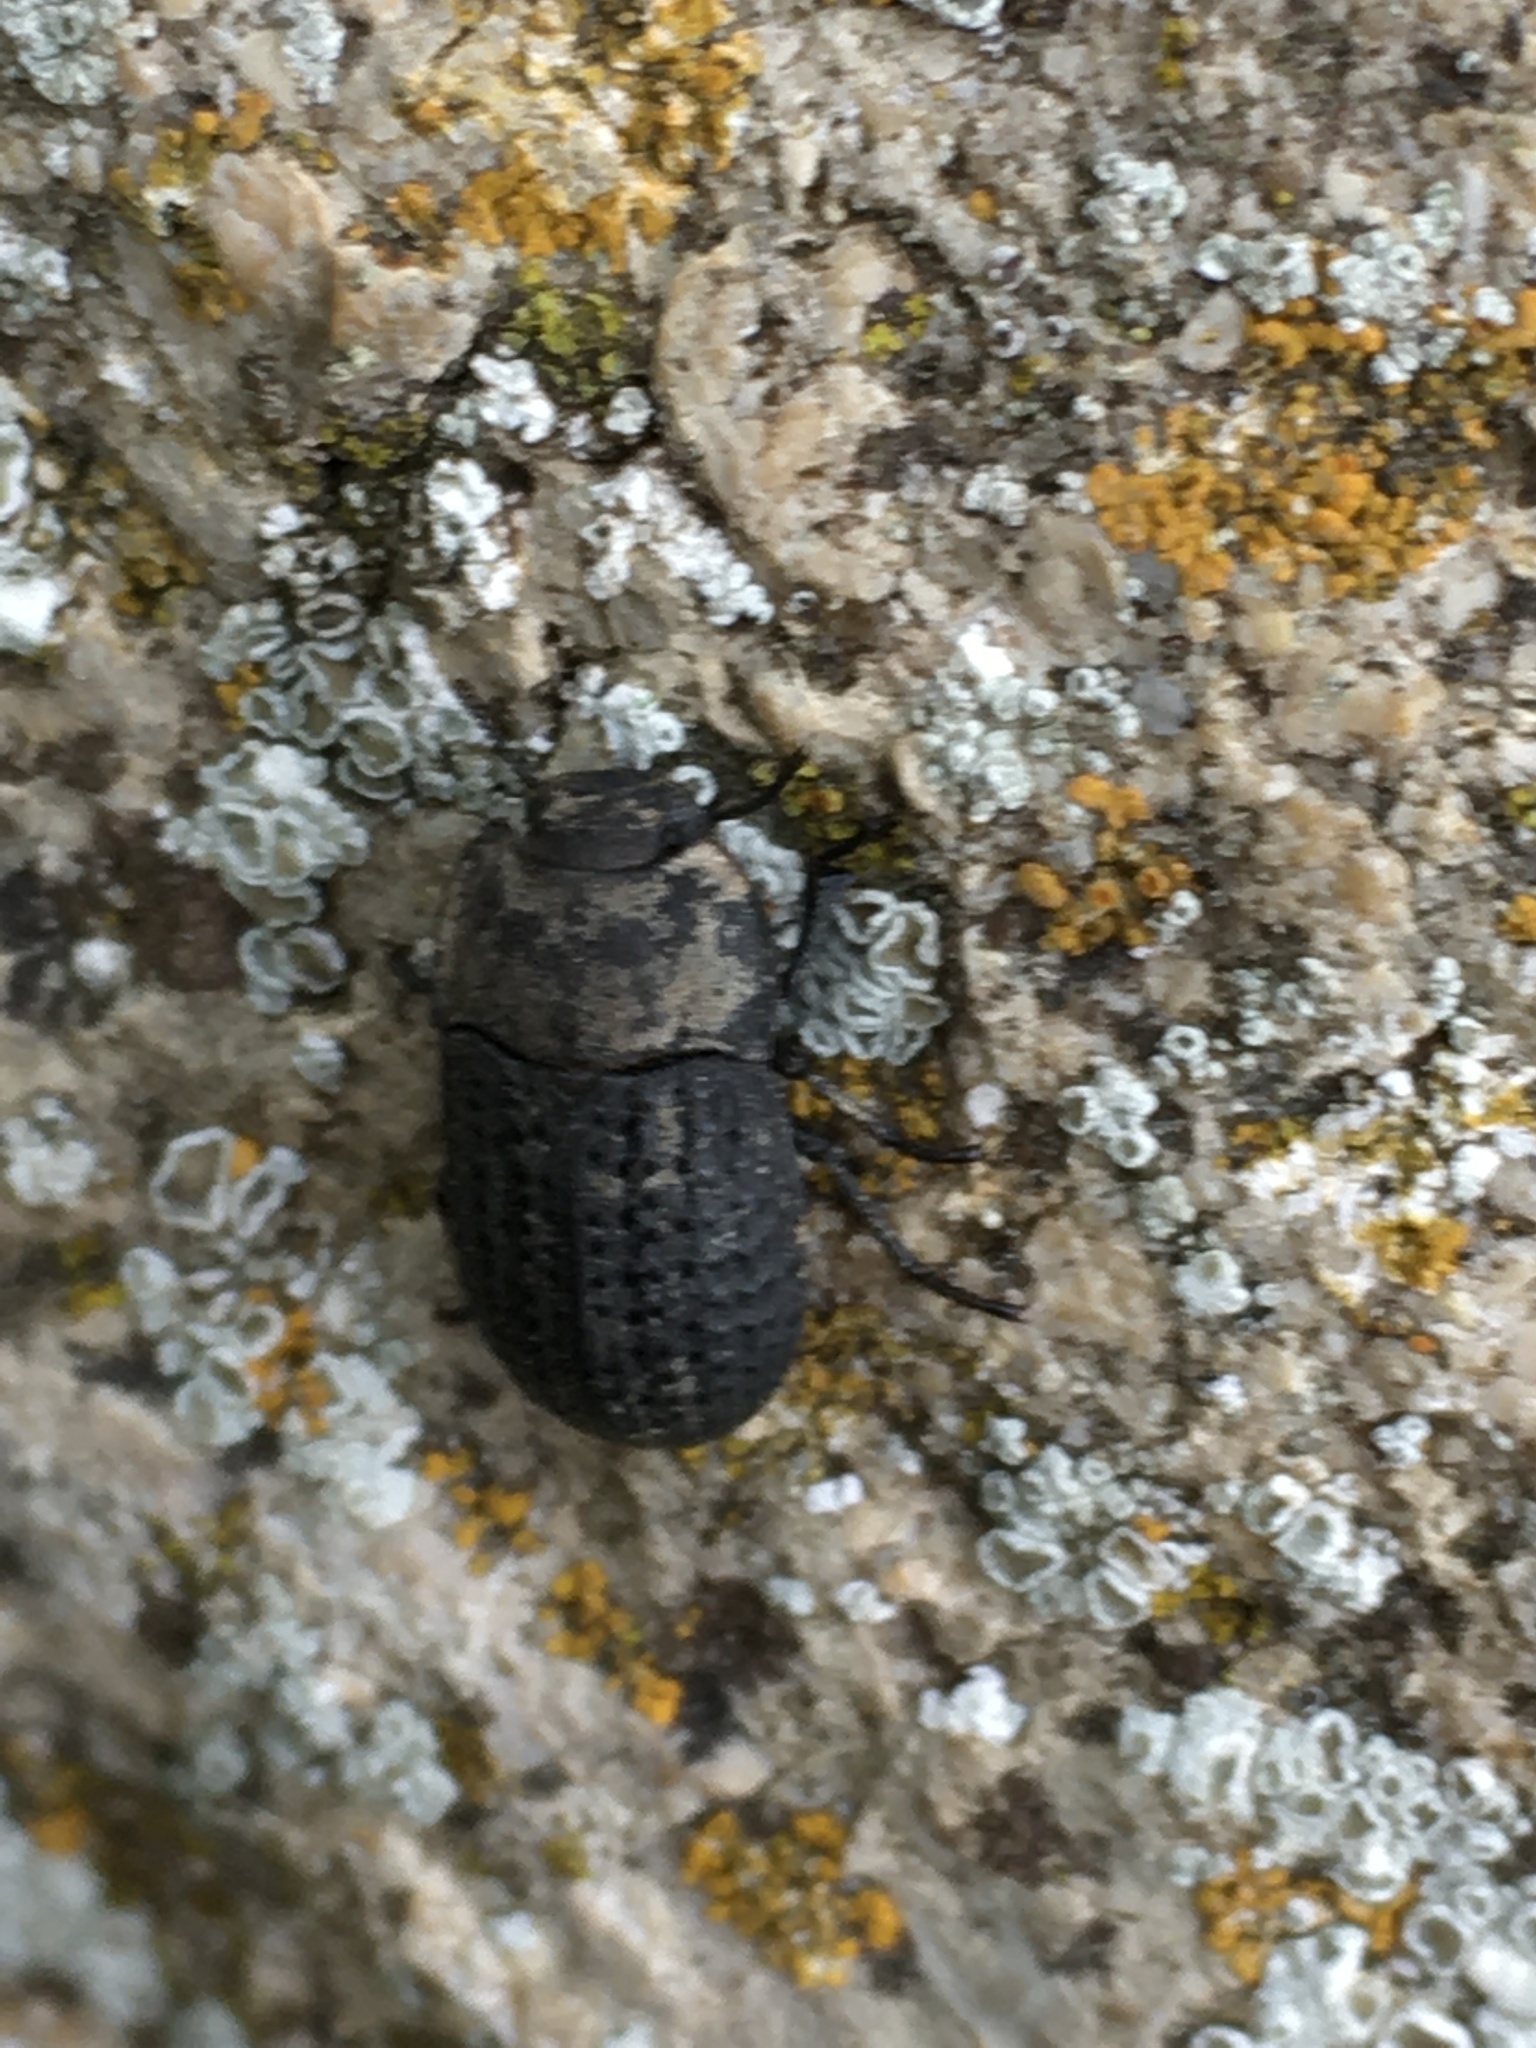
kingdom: Animalia
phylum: Arthropoda
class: Insecta
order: Coleoptera
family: Tenebrionidae
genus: Opatrum
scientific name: Opatrum sabulosum
